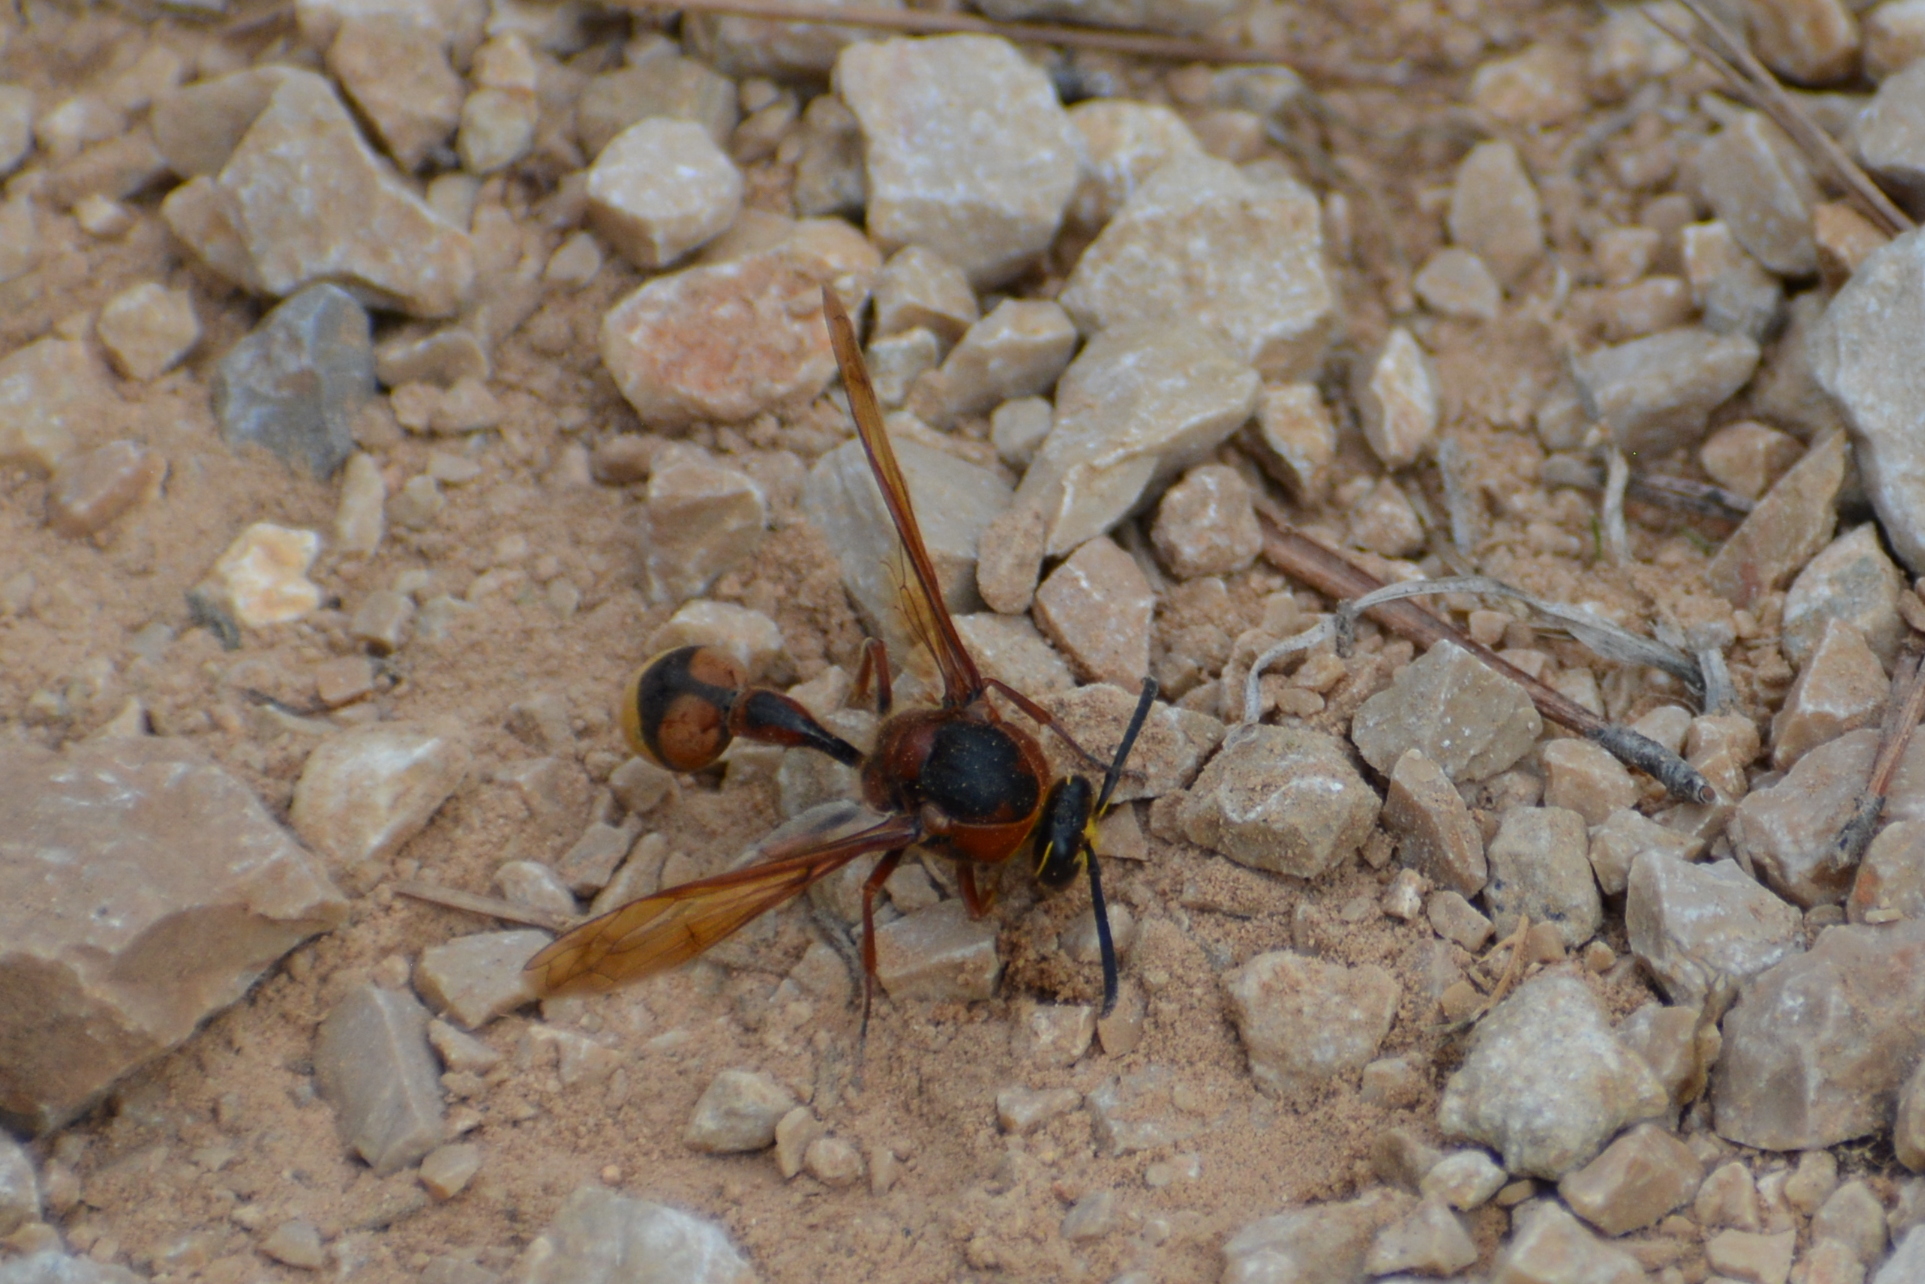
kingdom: Animalia
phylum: Arthropoda
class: Insecta
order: Hymenoptera
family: Eumenidae
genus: Delta
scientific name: Delta unguiculatum
